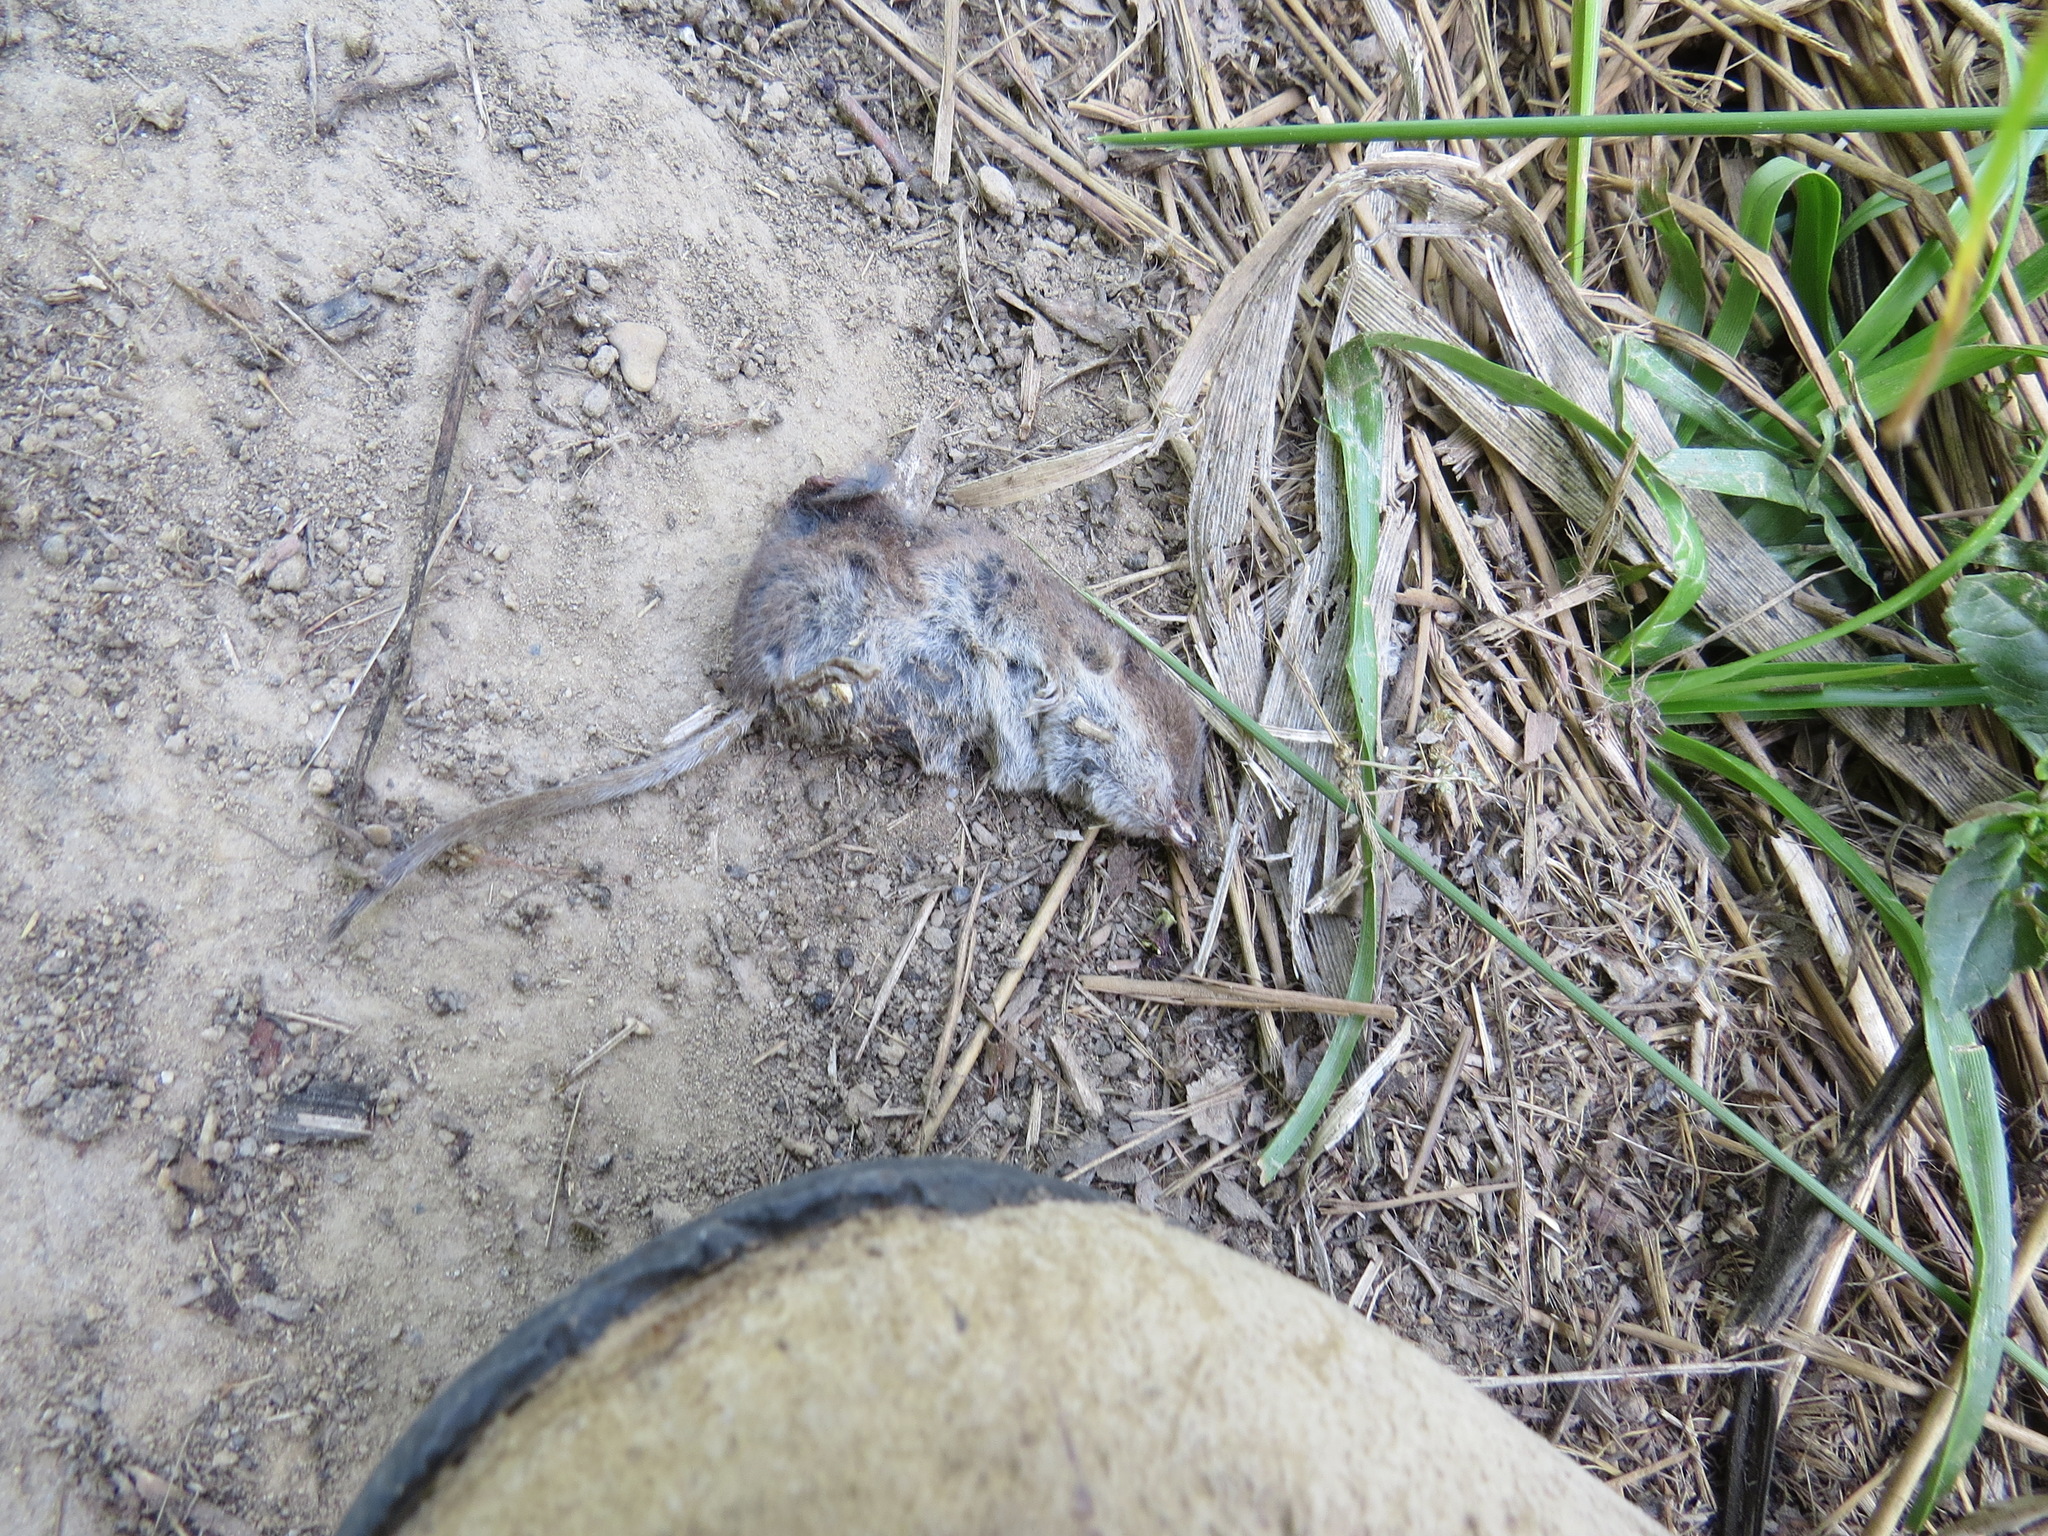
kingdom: Animalia
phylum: Chordata
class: Mammalia
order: Soricomorpha
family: Soricidae
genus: Sorex
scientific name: Sorex vagrans
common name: Vagrant shrew
